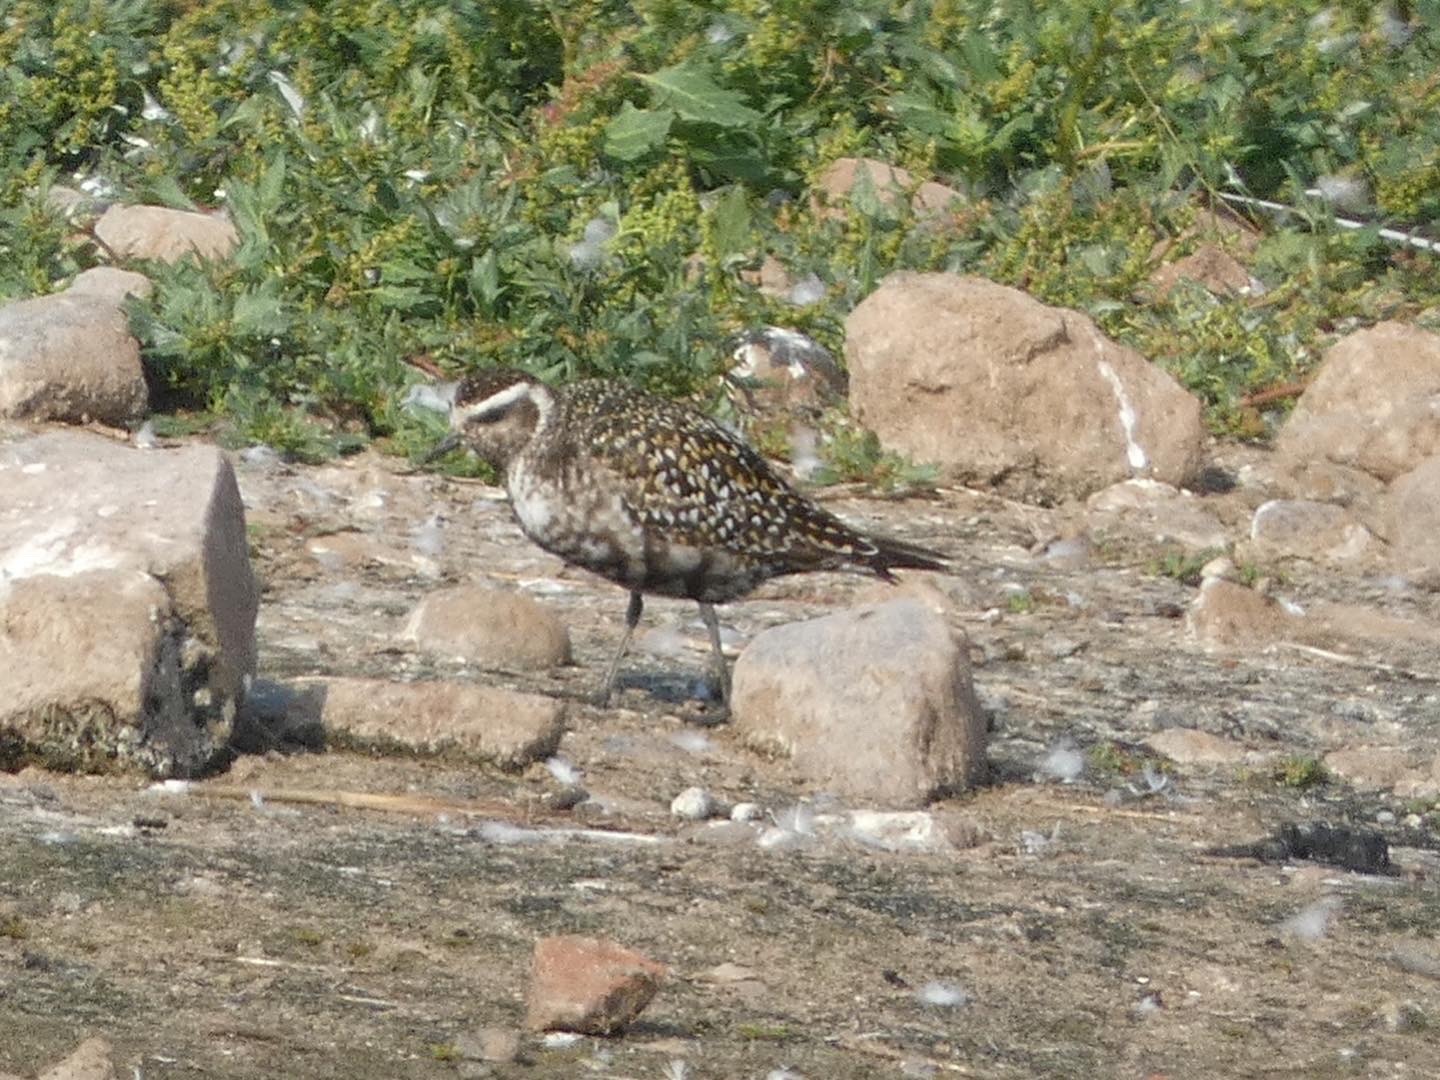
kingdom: Animalia
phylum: Chordata
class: Aves
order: Charadriiformes
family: Charadriidae
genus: Pluvialis
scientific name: Pluvialis dominica
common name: American golden plover
